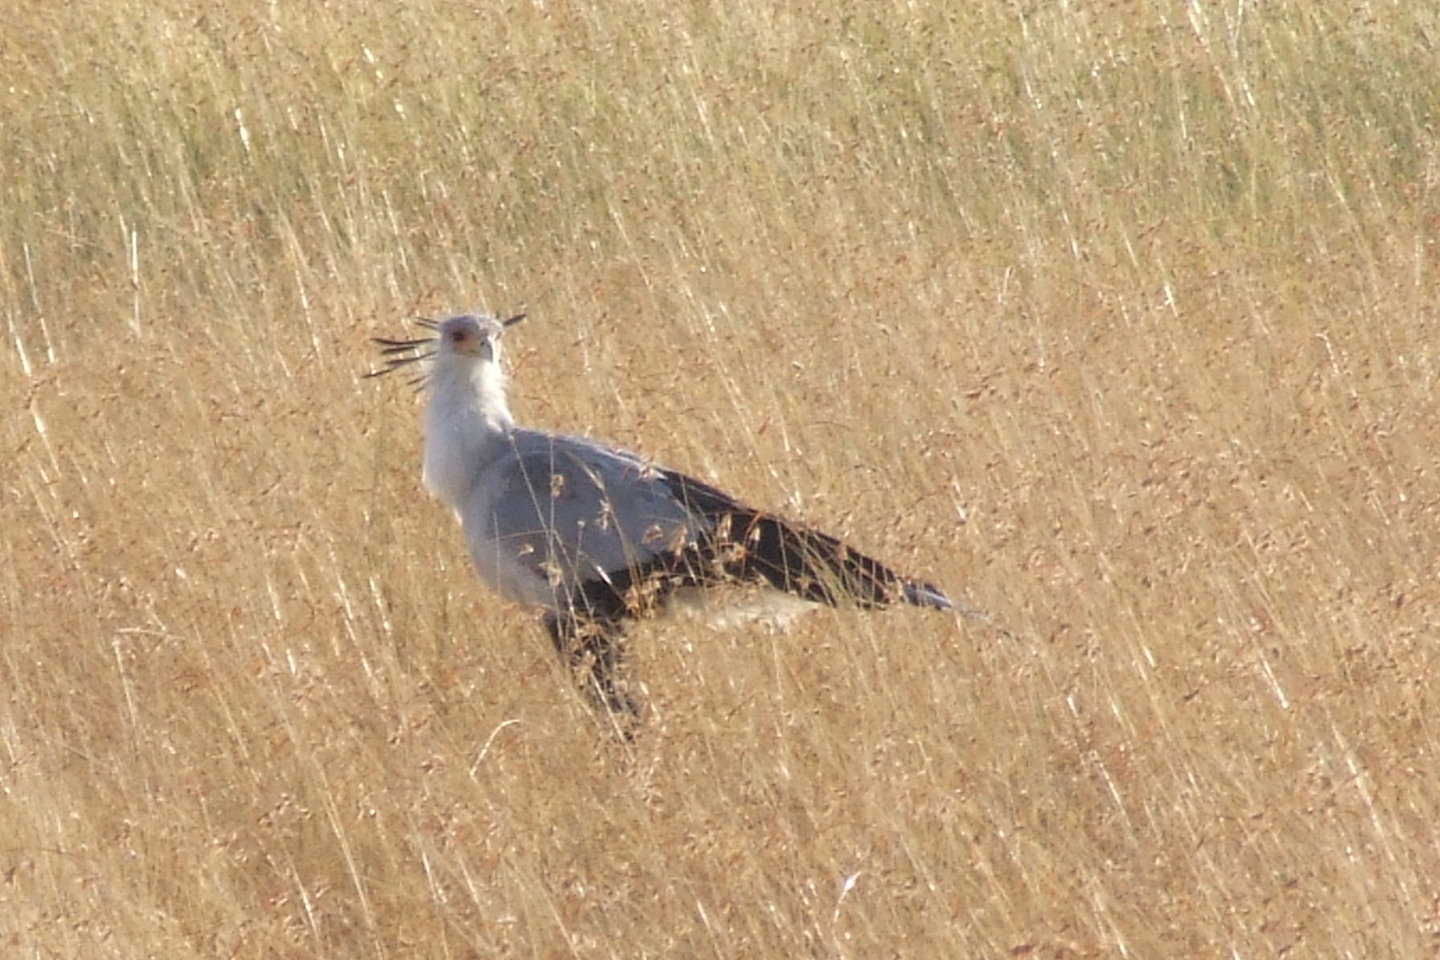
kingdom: Animalia
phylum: Chordata
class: Aves
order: Accipitriformes
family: Sagittariidae
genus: Sagittarius
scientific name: Sagittarius serpentarius
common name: Secretarybird
